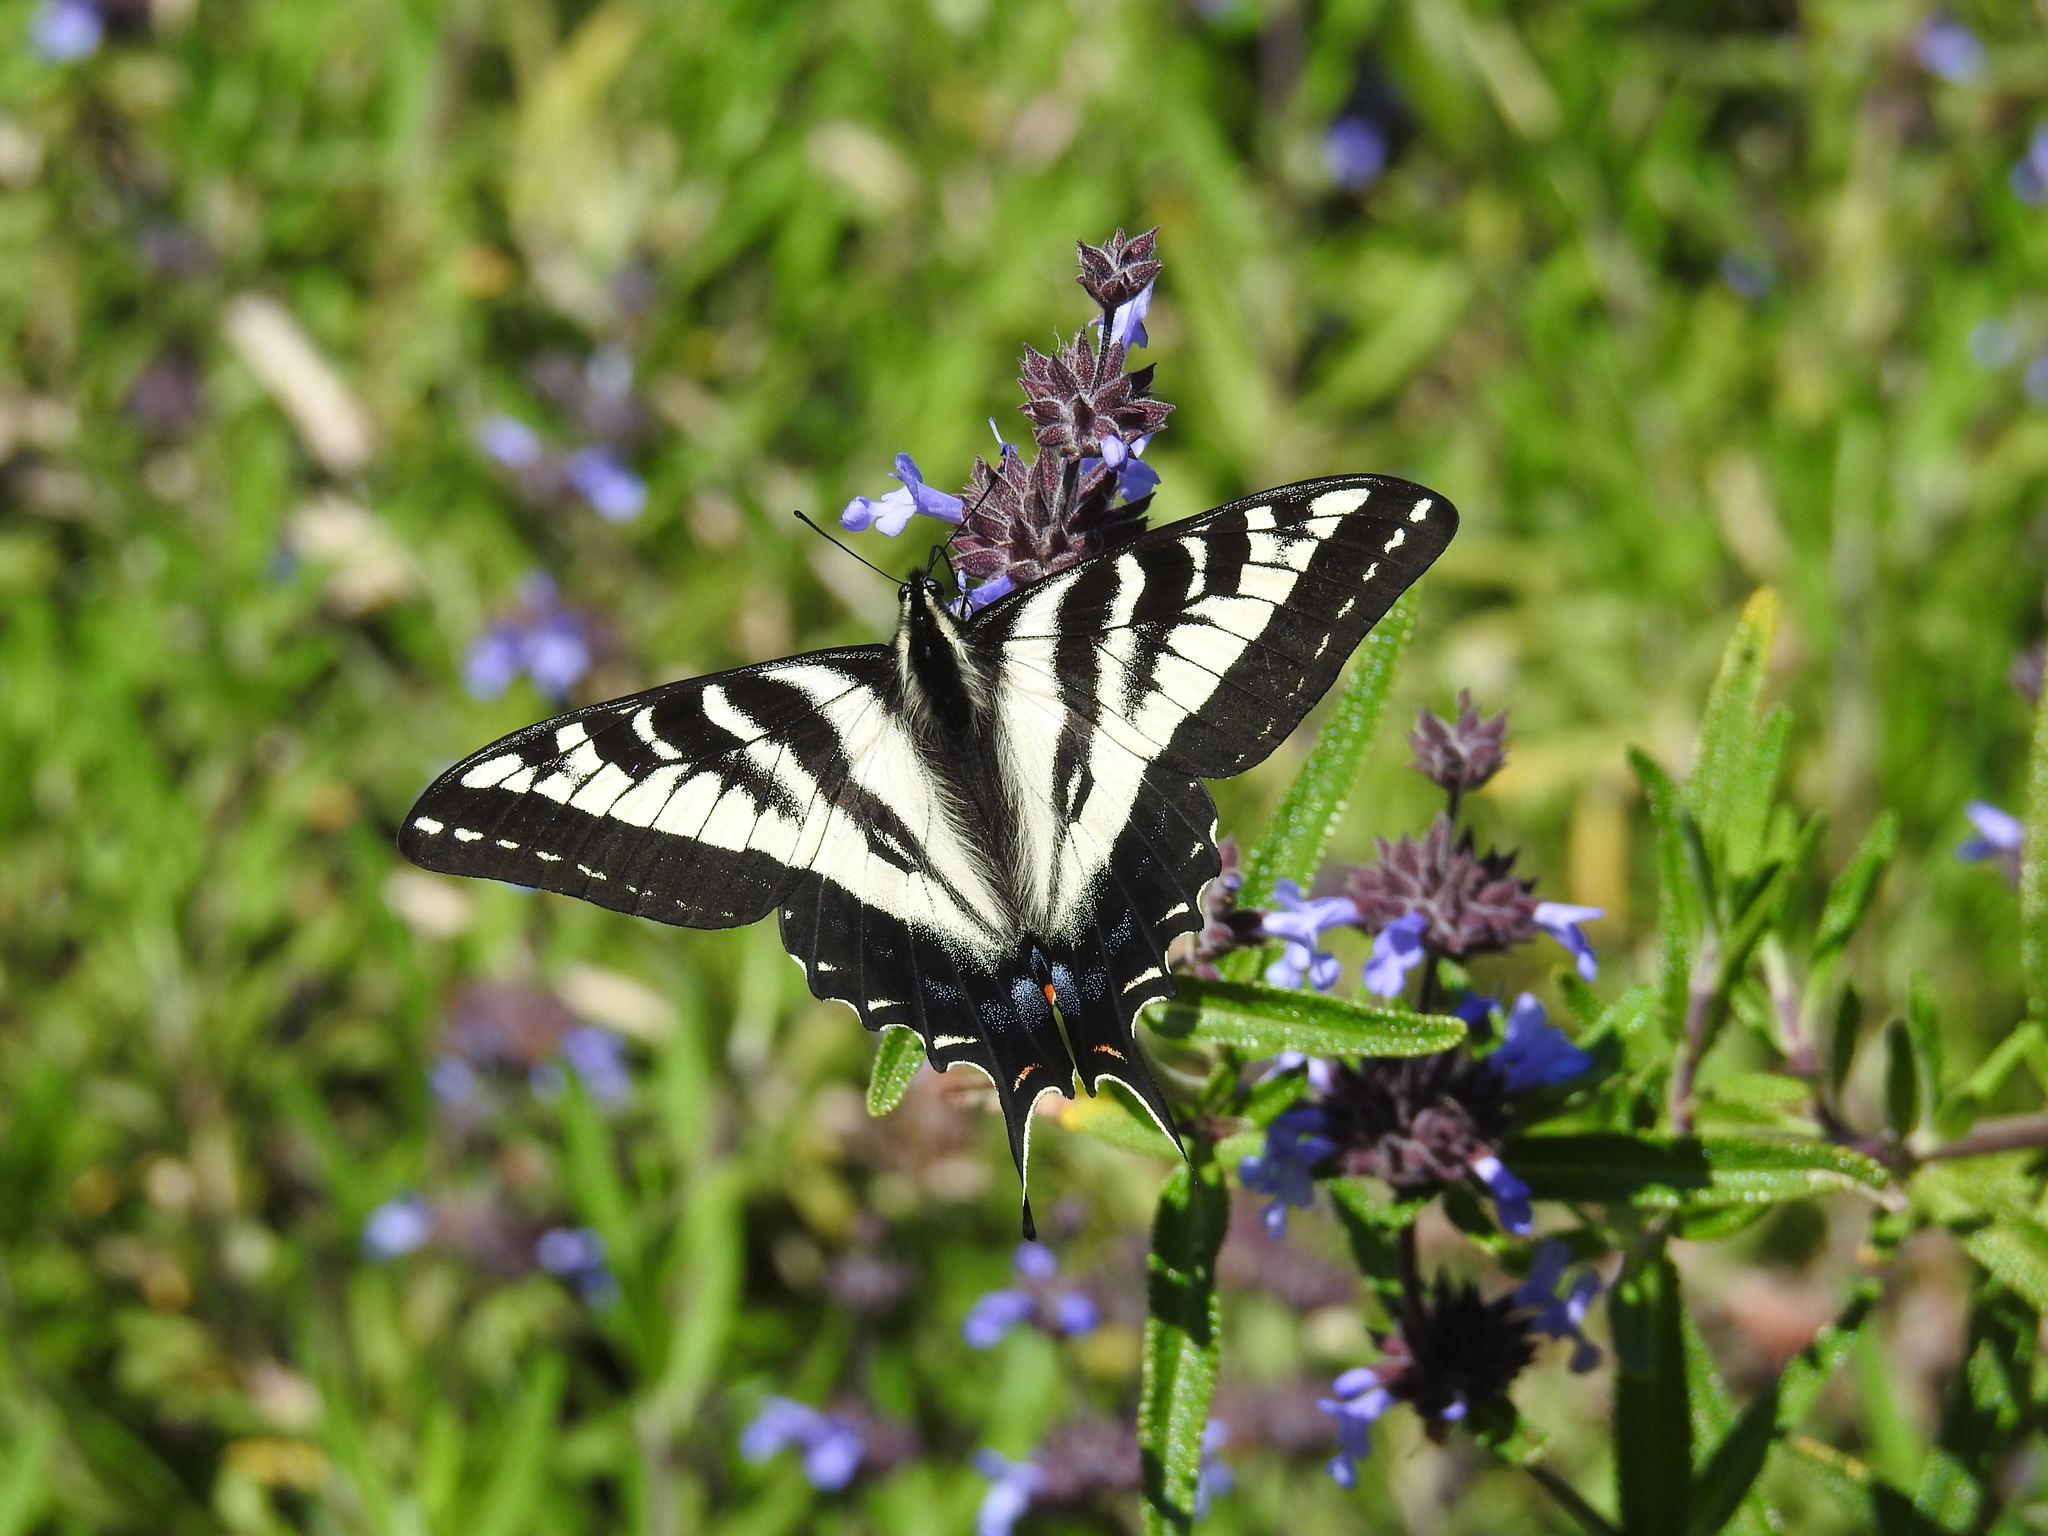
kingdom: Animalia
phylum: Arthropoda
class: Insecta
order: Lepidoptera
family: Papilionidae
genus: Papilio
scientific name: Papilio eurymedon
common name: Pale tiger swallowtail
